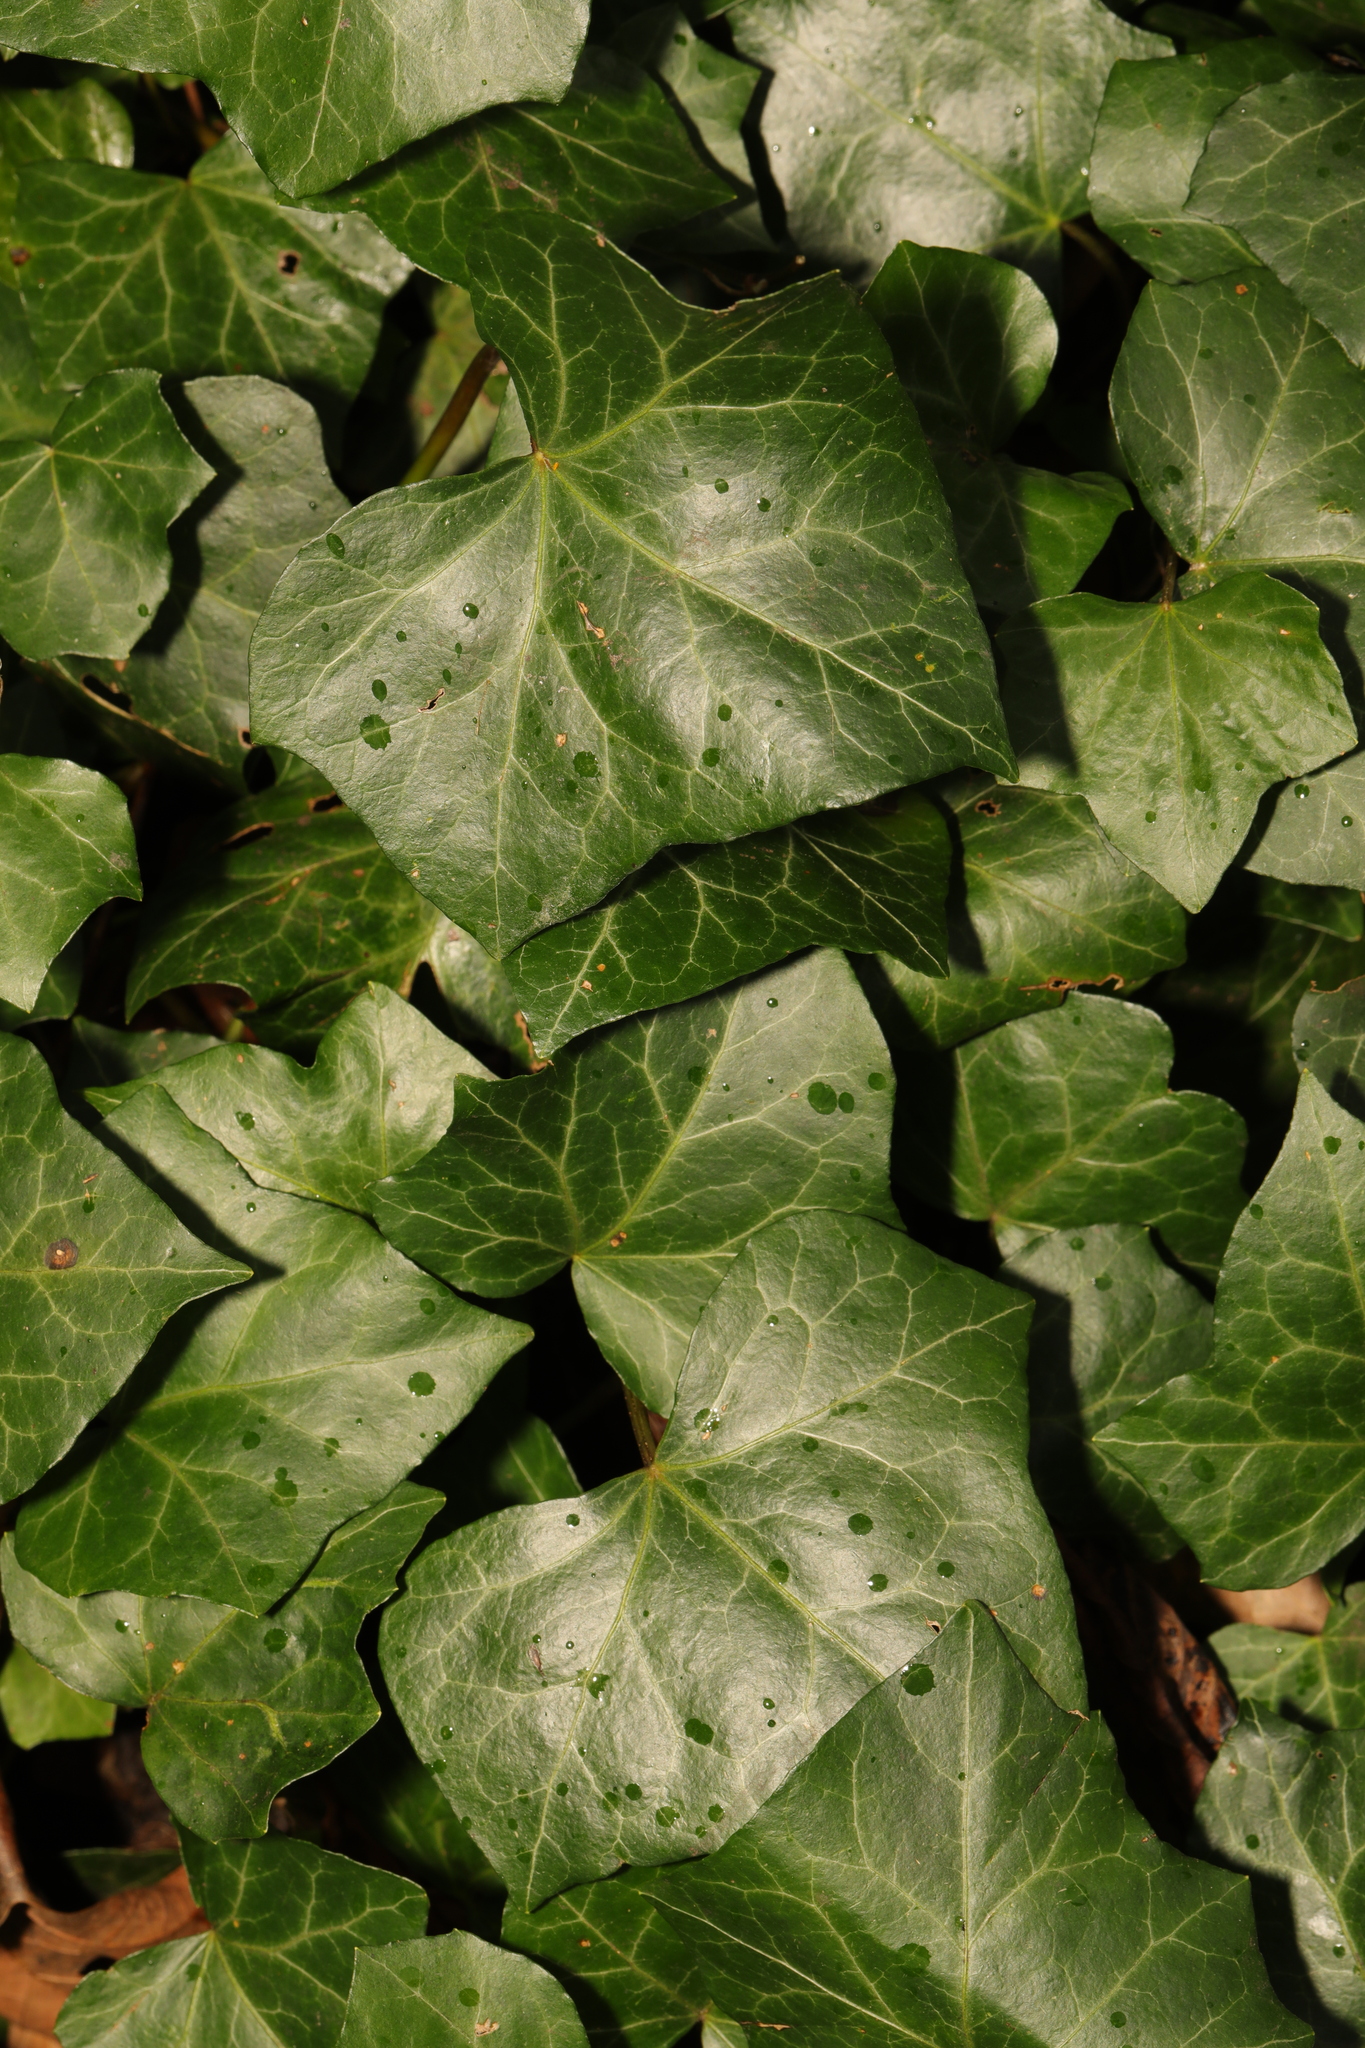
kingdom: Plantae
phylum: Tracheophyta
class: Magnoliopsida
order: Apiales
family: Araliaceae
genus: Hedera
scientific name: Hedera helix
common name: Ivy
